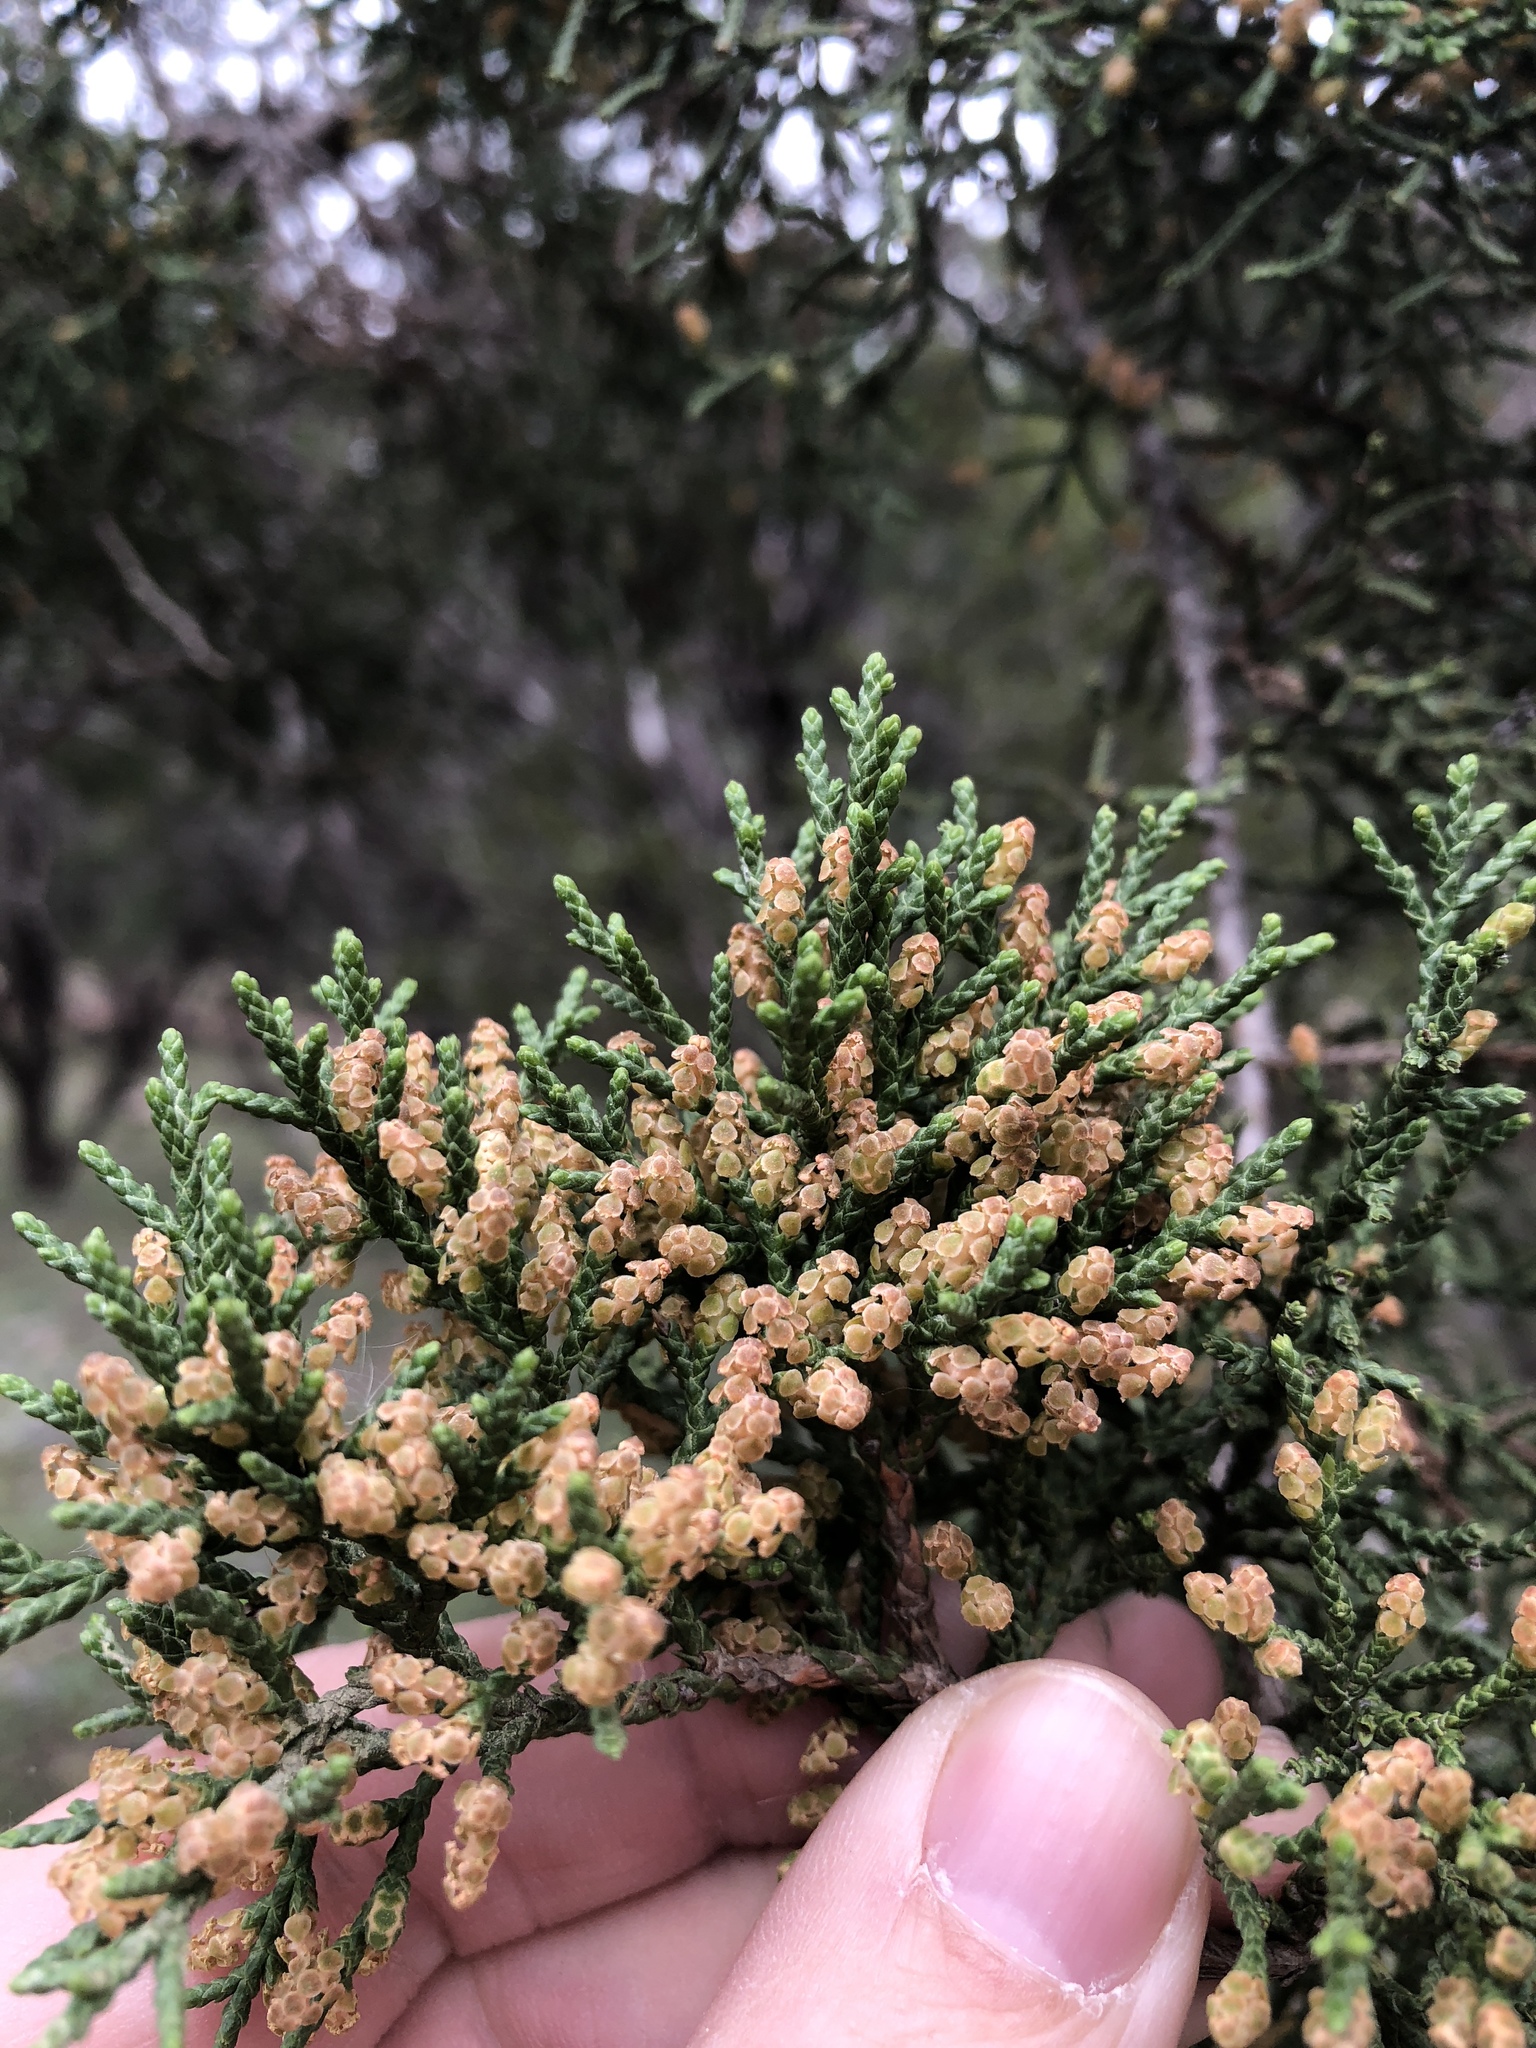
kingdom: Plantae
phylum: Tracheophyta
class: Pinopsida
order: Pinales
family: Cupressaceae
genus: Juniperus
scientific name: Juniperus ashei
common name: Mexican juniper
